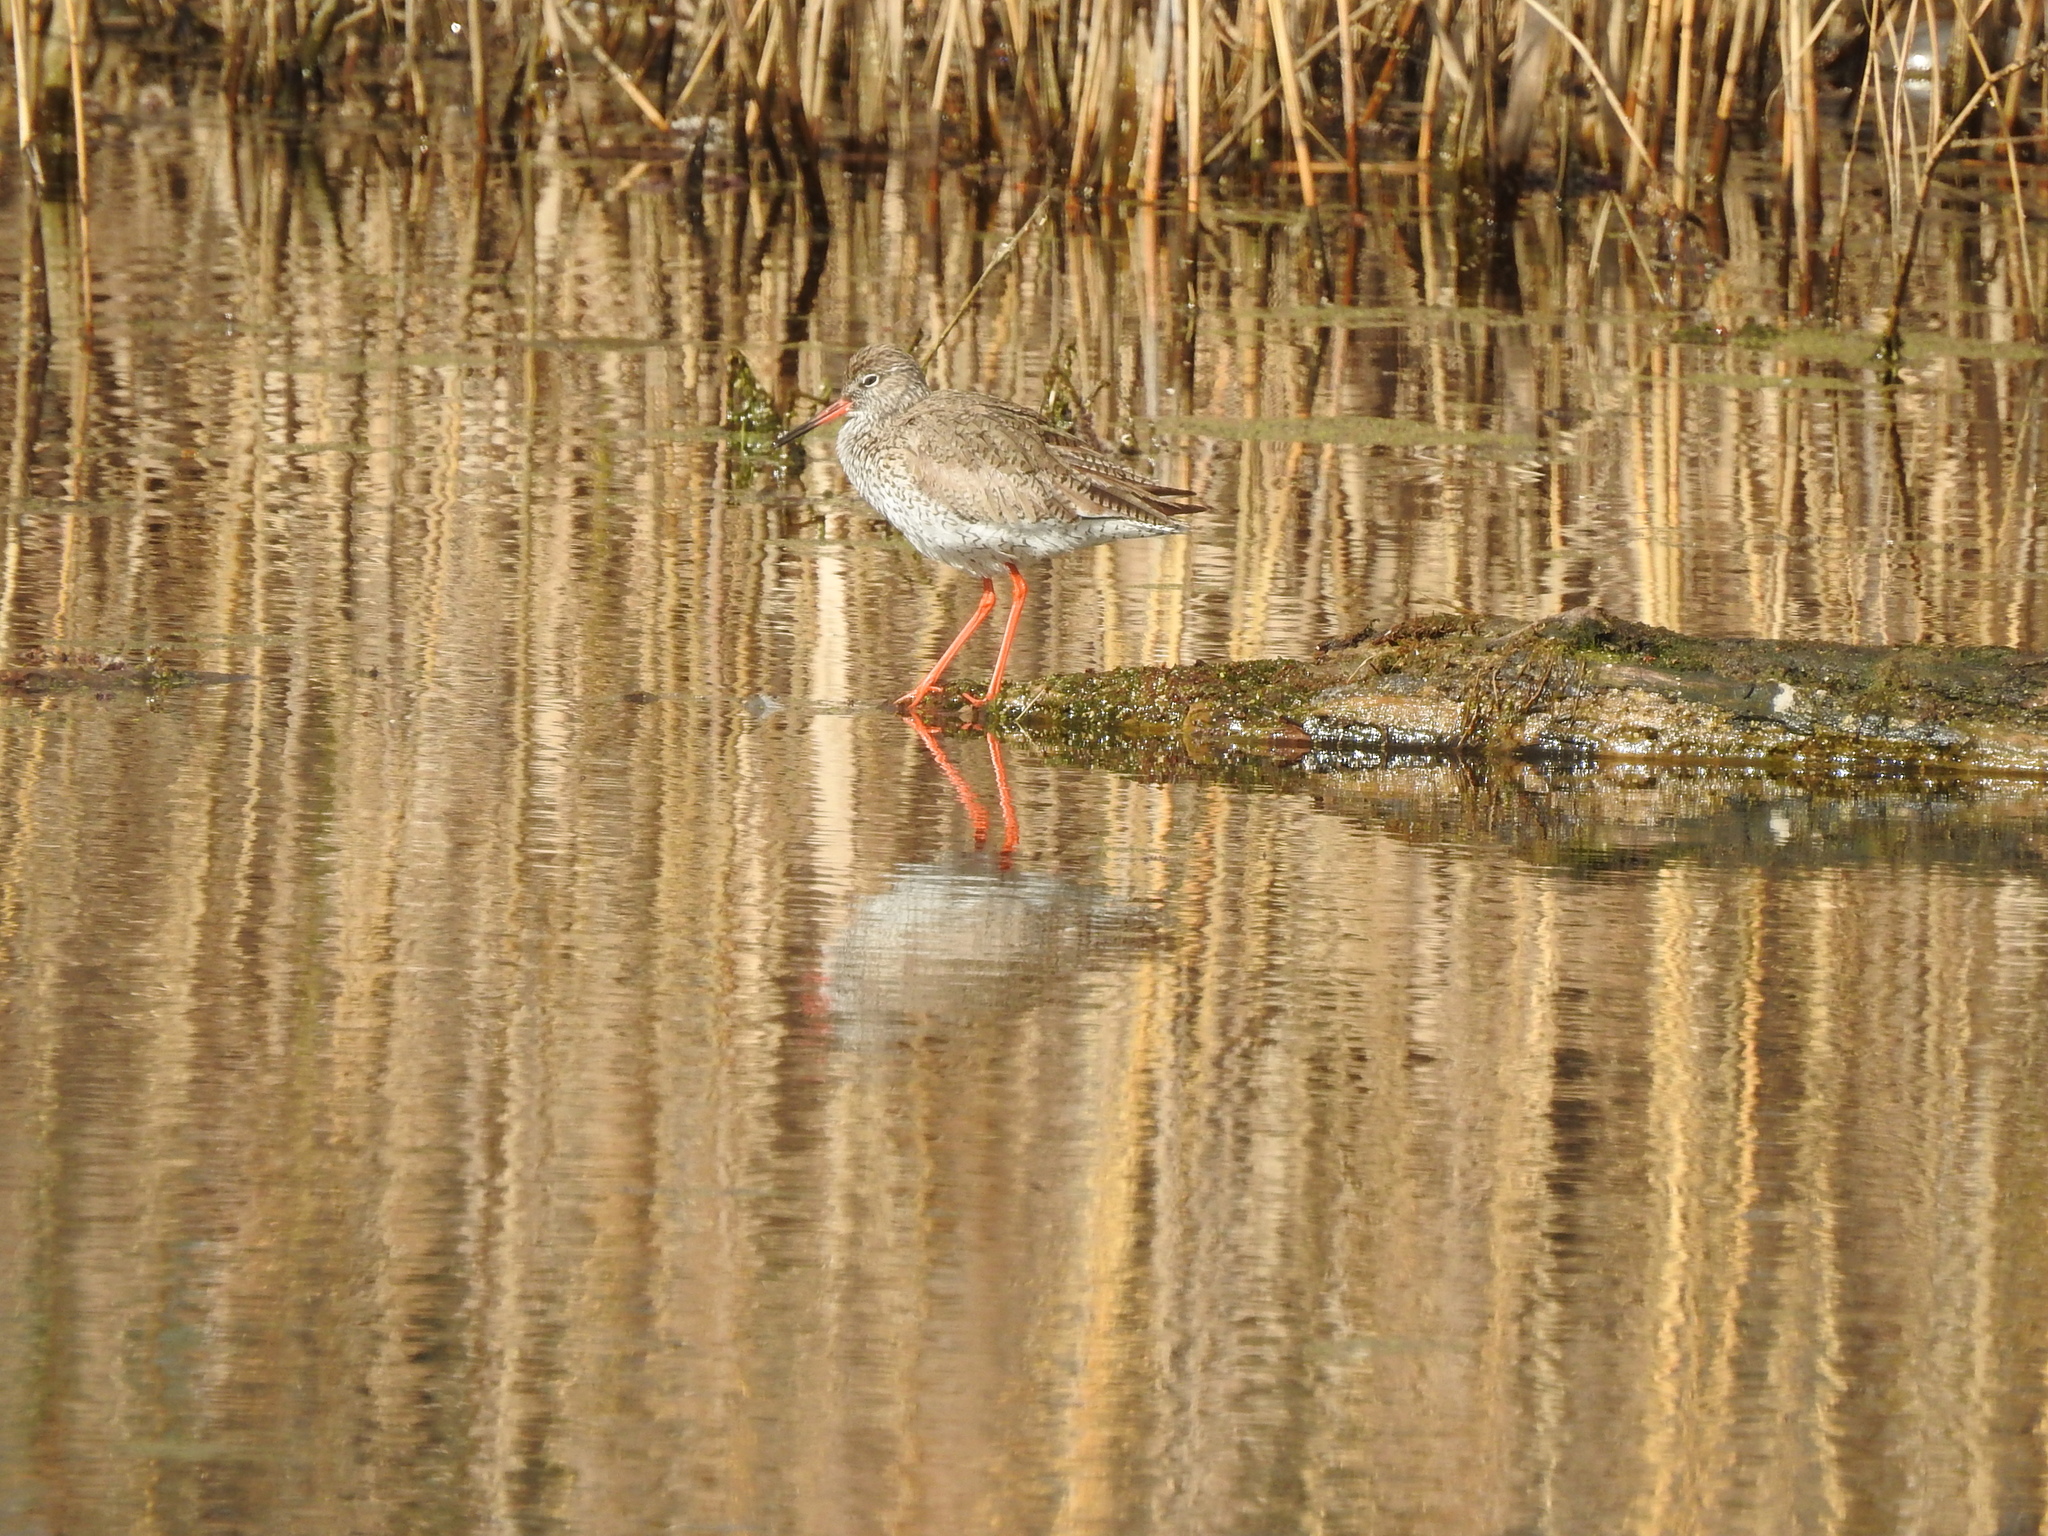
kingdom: Animalia
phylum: Chordata
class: Aves
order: Charadriiformes
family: Scolopacidae
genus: Tringa
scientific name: Tringa totanus
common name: Common redshank
